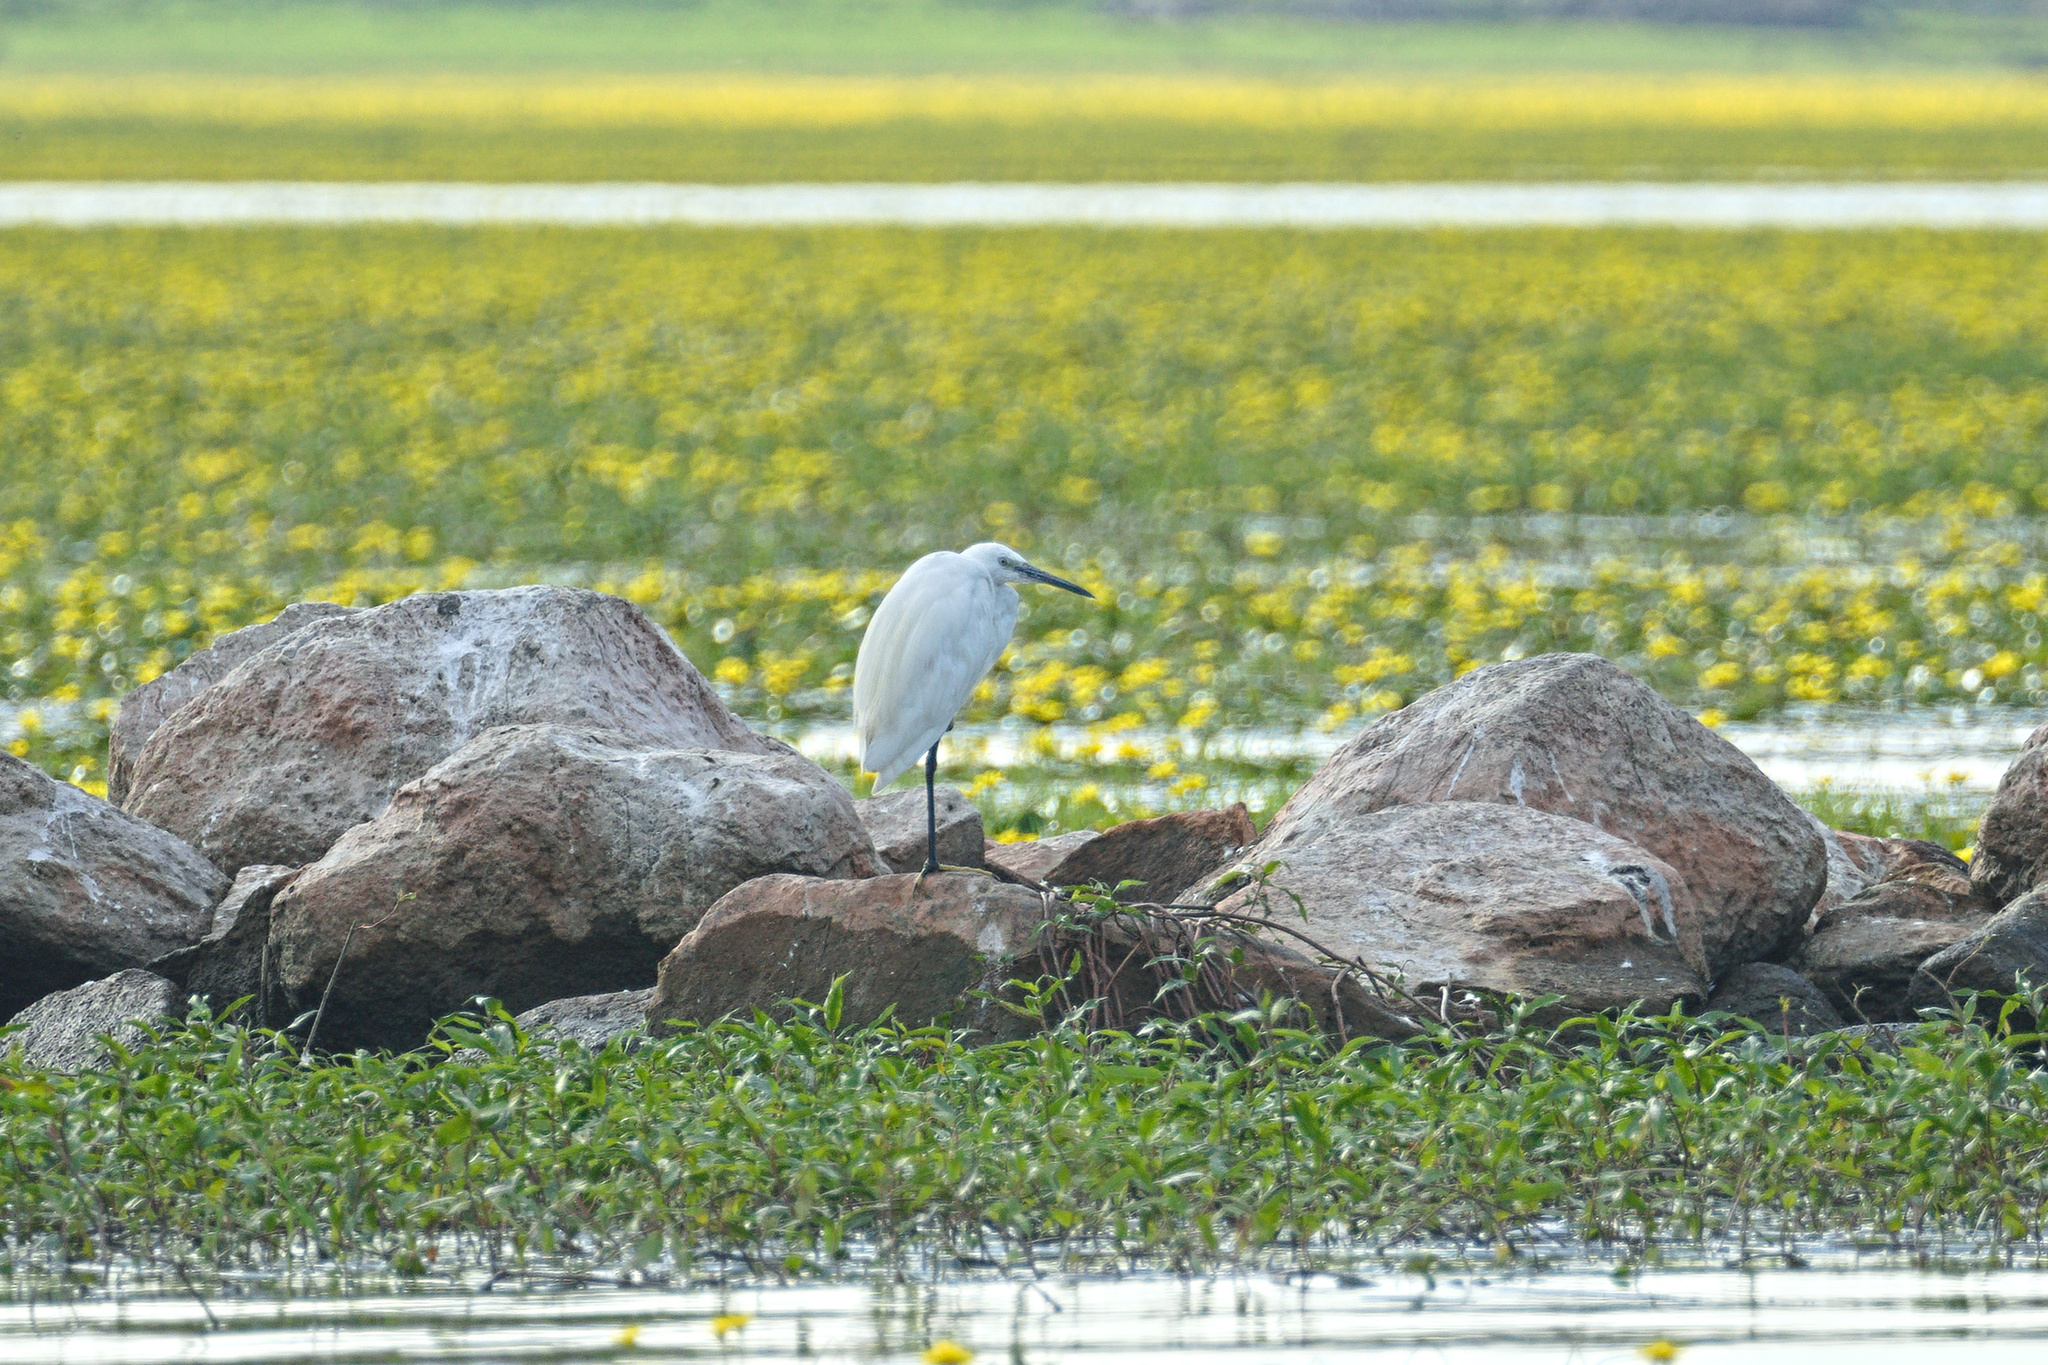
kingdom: Animalia
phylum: Chordata
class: Aves
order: Pelecaniformes
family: Ardeidae
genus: Egretta
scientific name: Egretta garzetta
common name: Little egret
